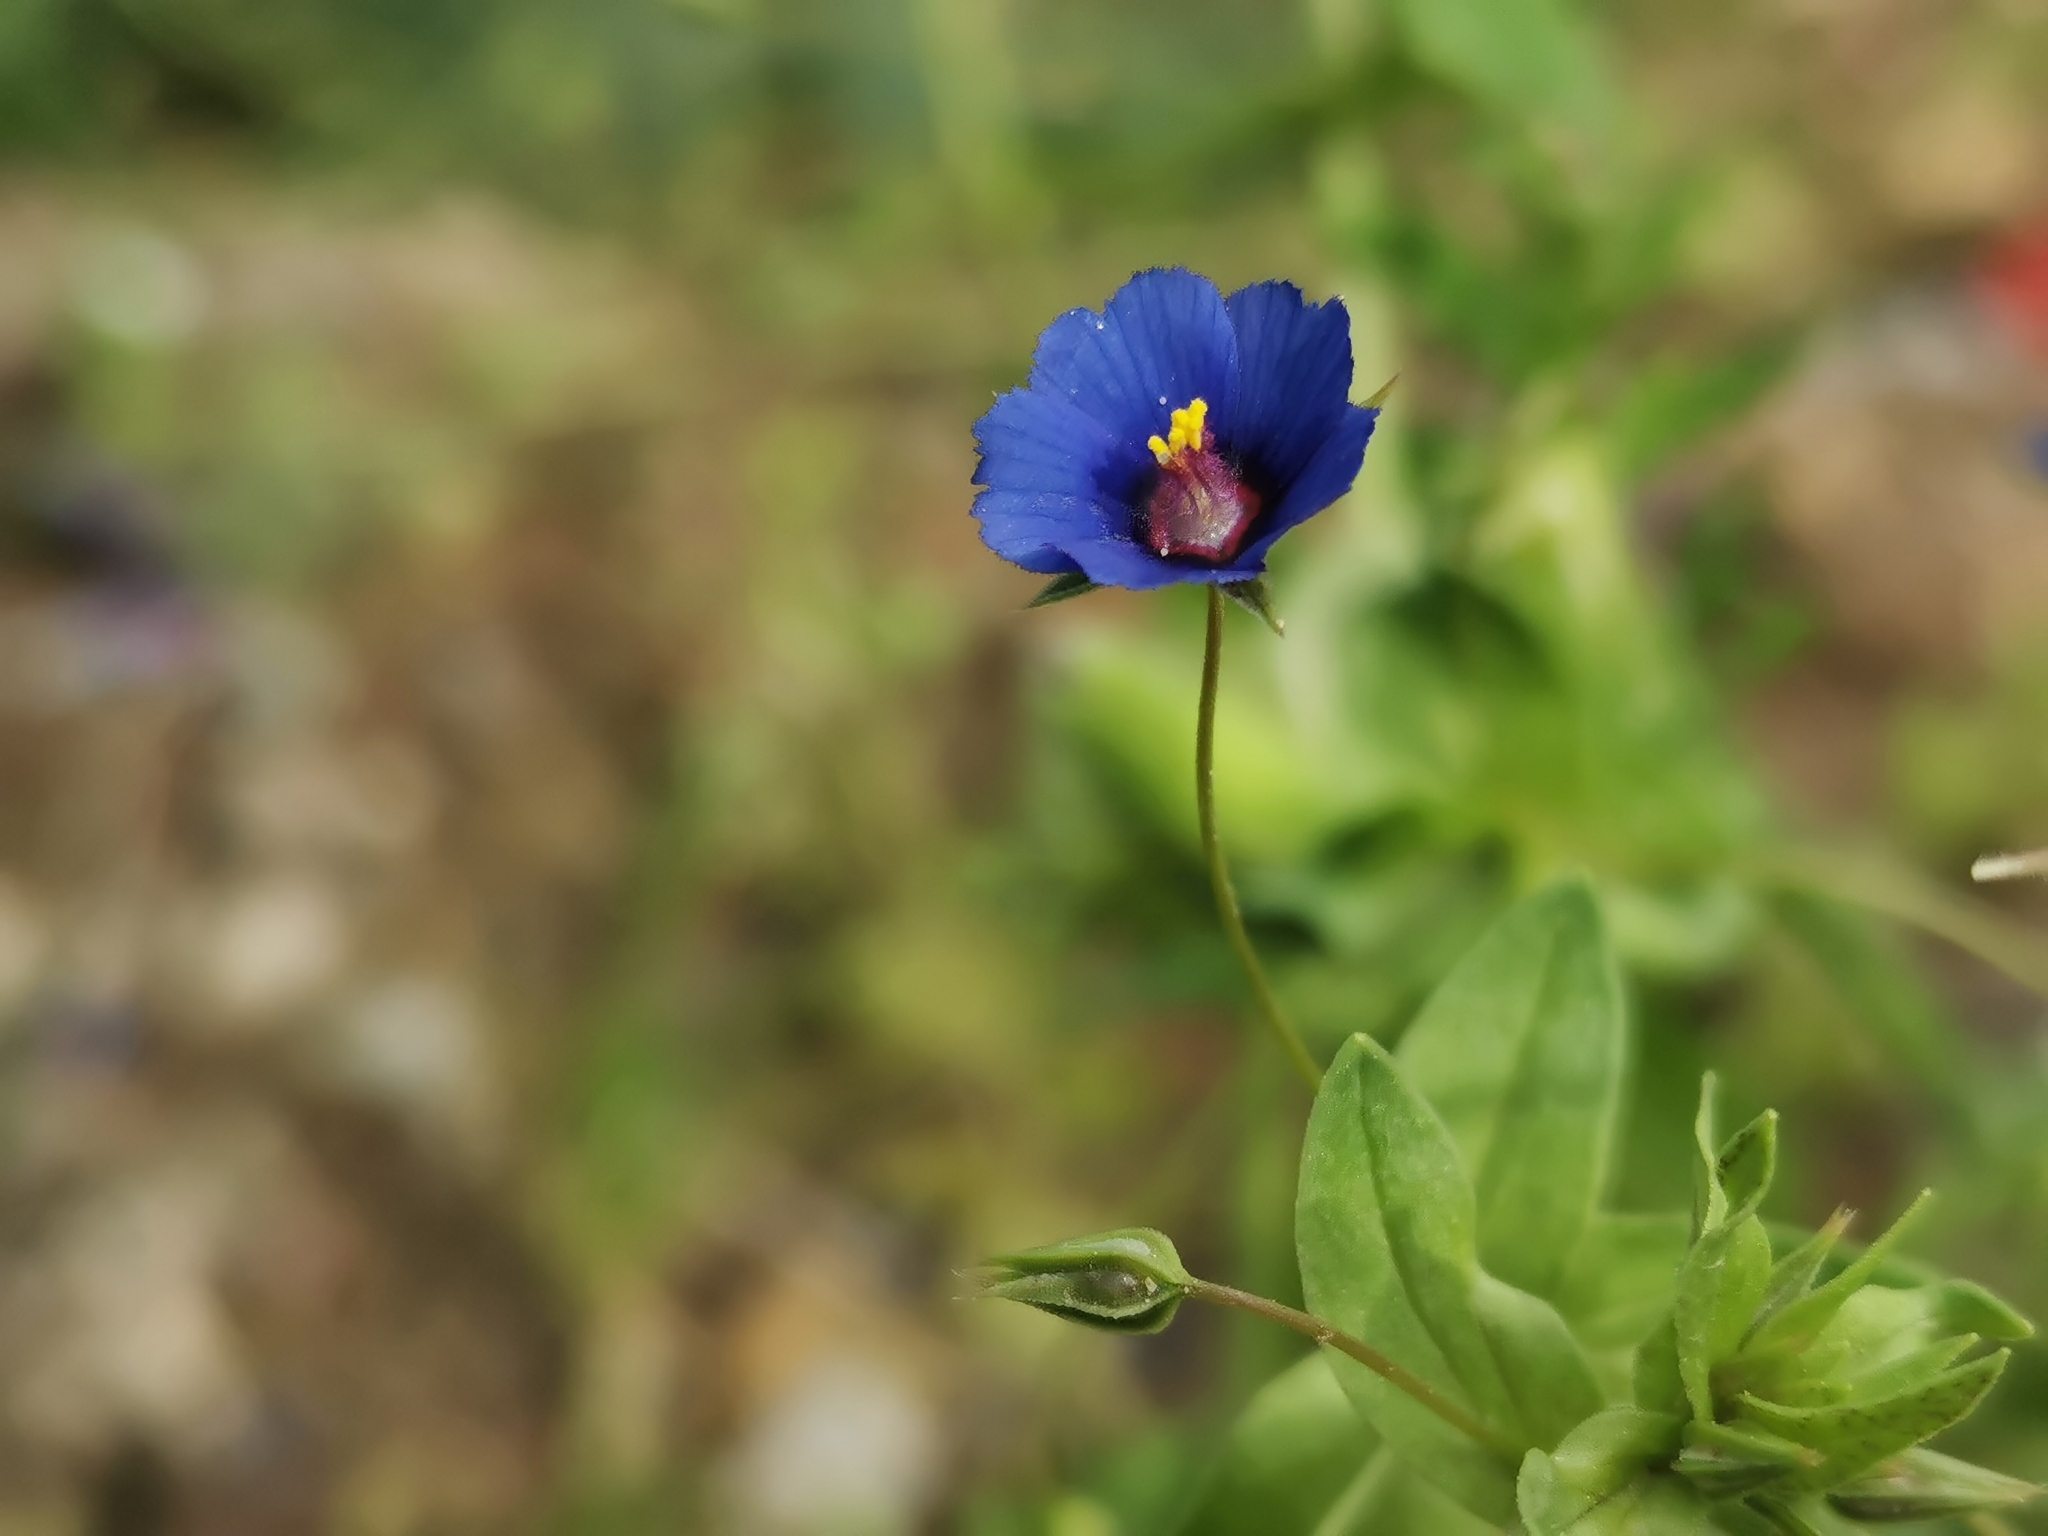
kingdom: Plantae
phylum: Tracheophyta
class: Magnoliopsida
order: Ericales
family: Primulaceae
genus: Lysimachia
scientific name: Lysimachia loeflingii
